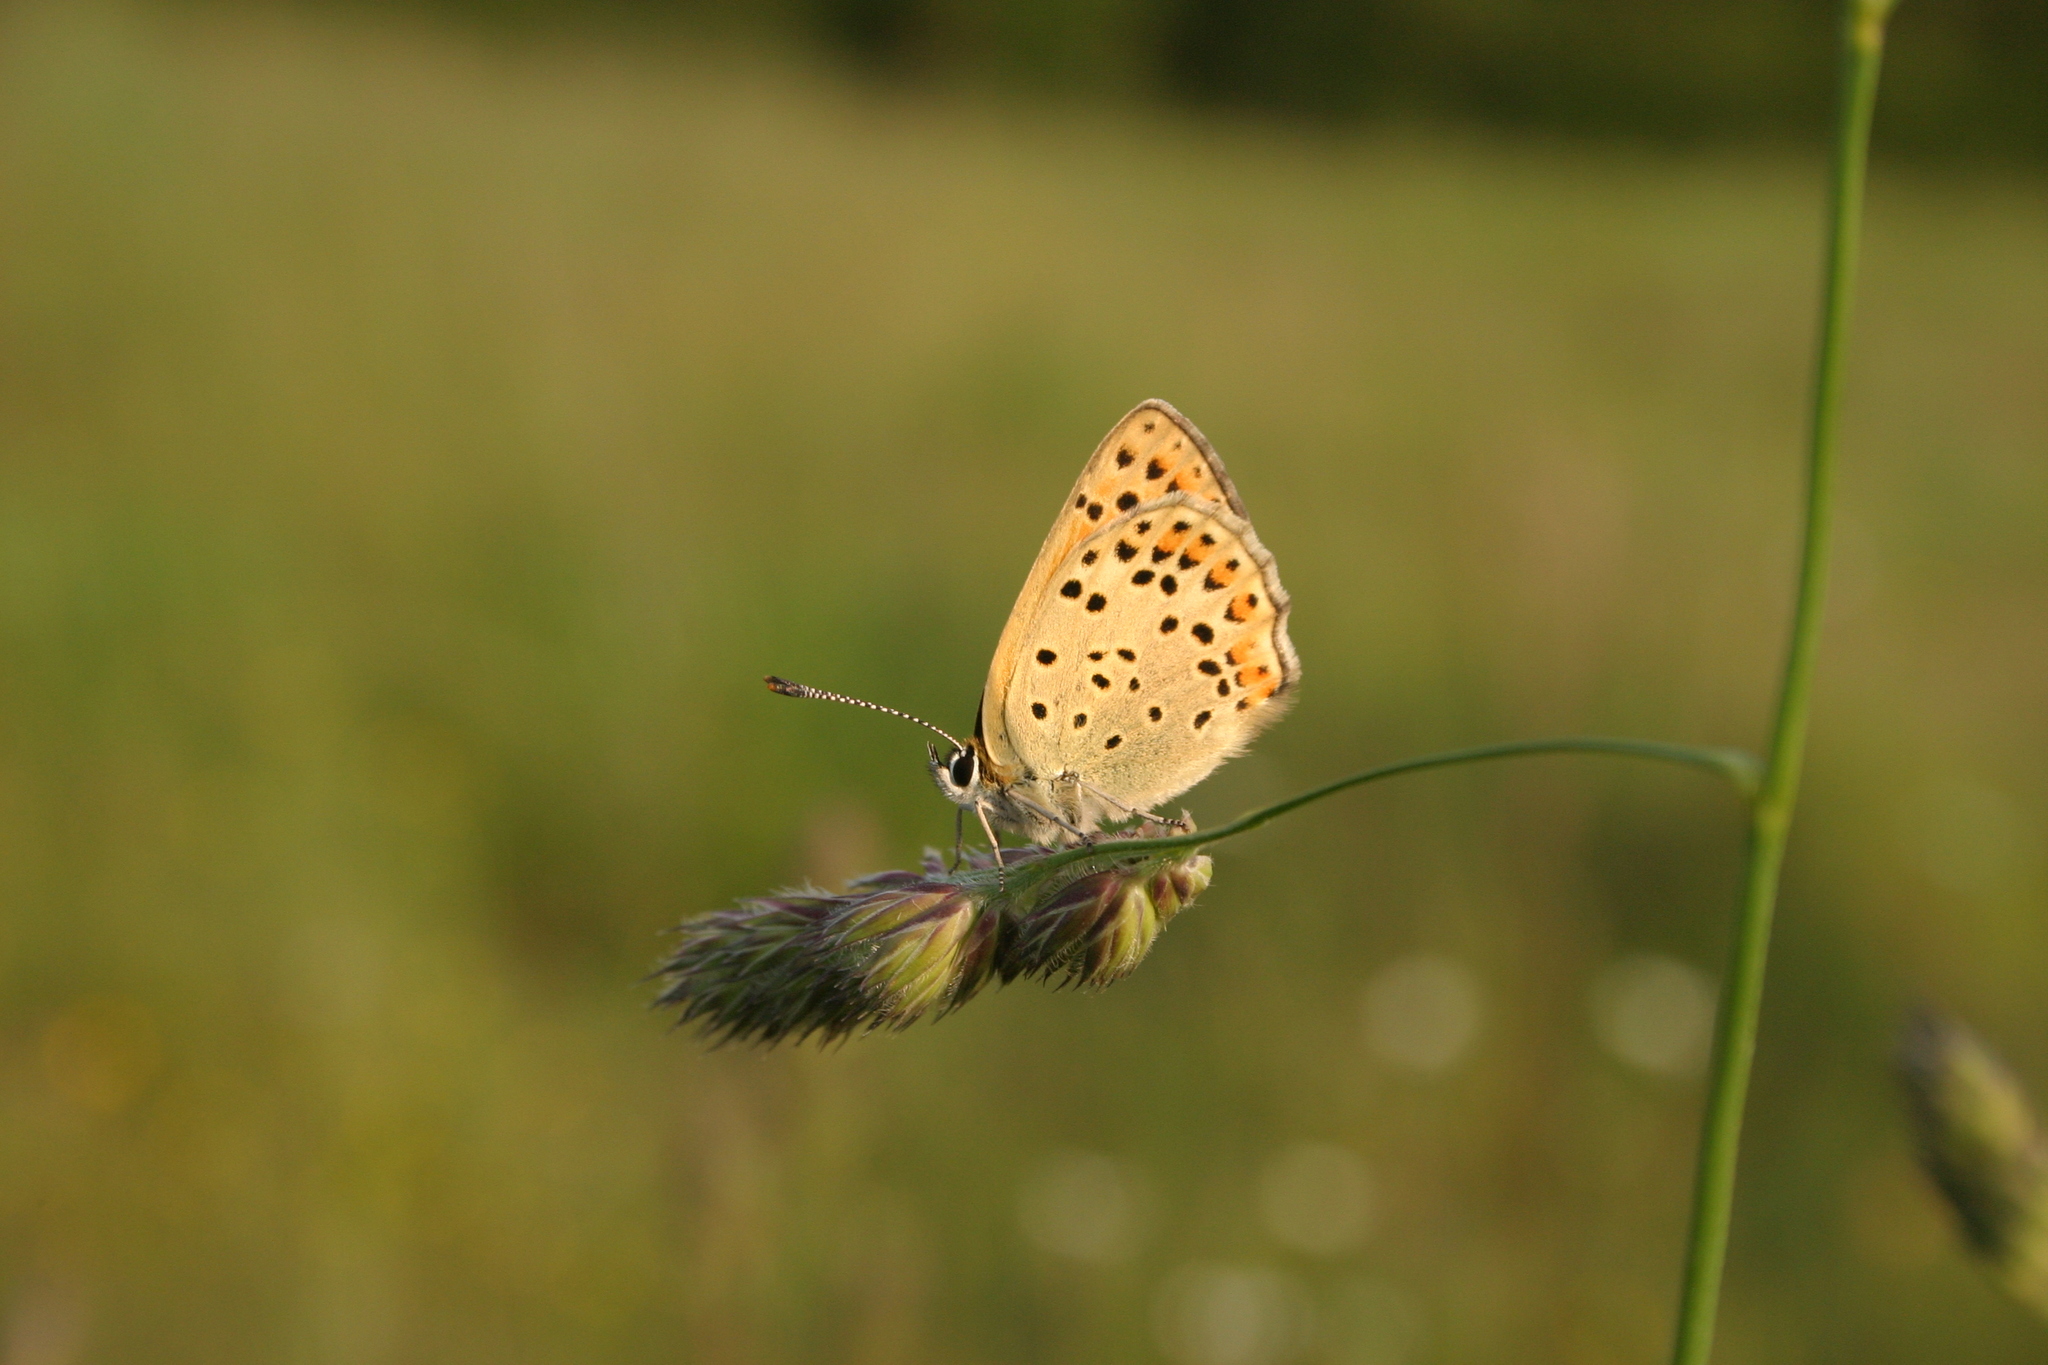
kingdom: Animalia
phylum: Arthropoda
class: Insecta
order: Lepidoptera
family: Lycaenidae
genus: Loweia
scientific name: Loweia tityrus
